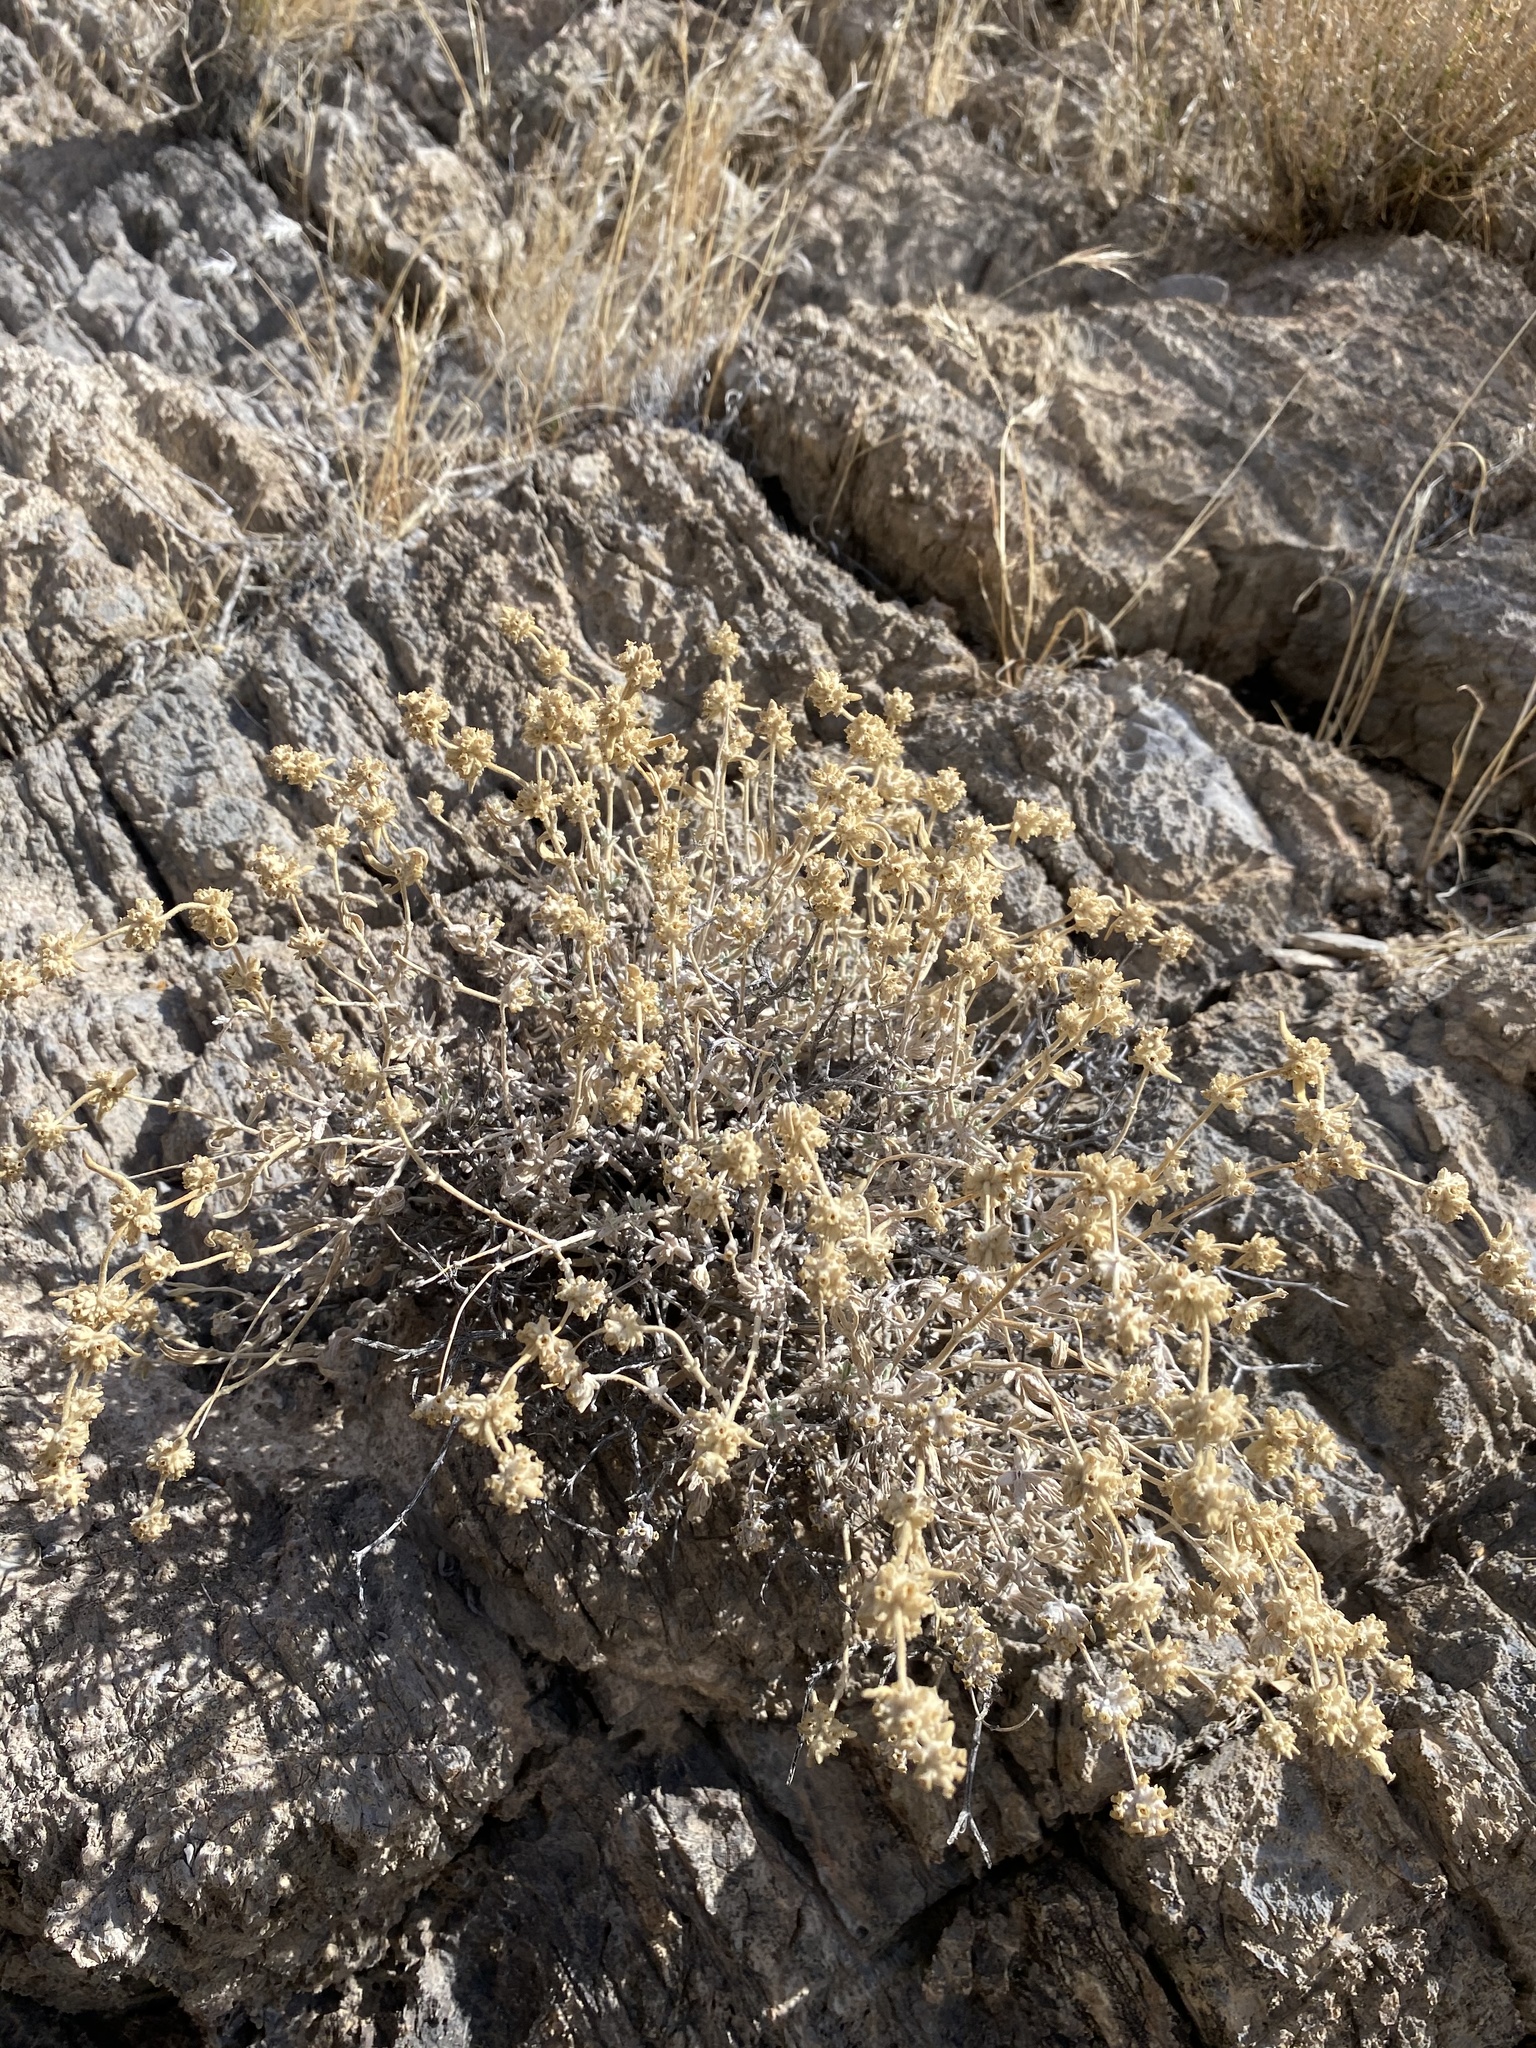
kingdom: Plantae
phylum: Tracheophyta
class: Magnoliopsida
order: Lamiales
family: Scrophulariaceae
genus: Buddleja
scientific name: Buddleja utahensis
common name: Utah butterfly-bush
